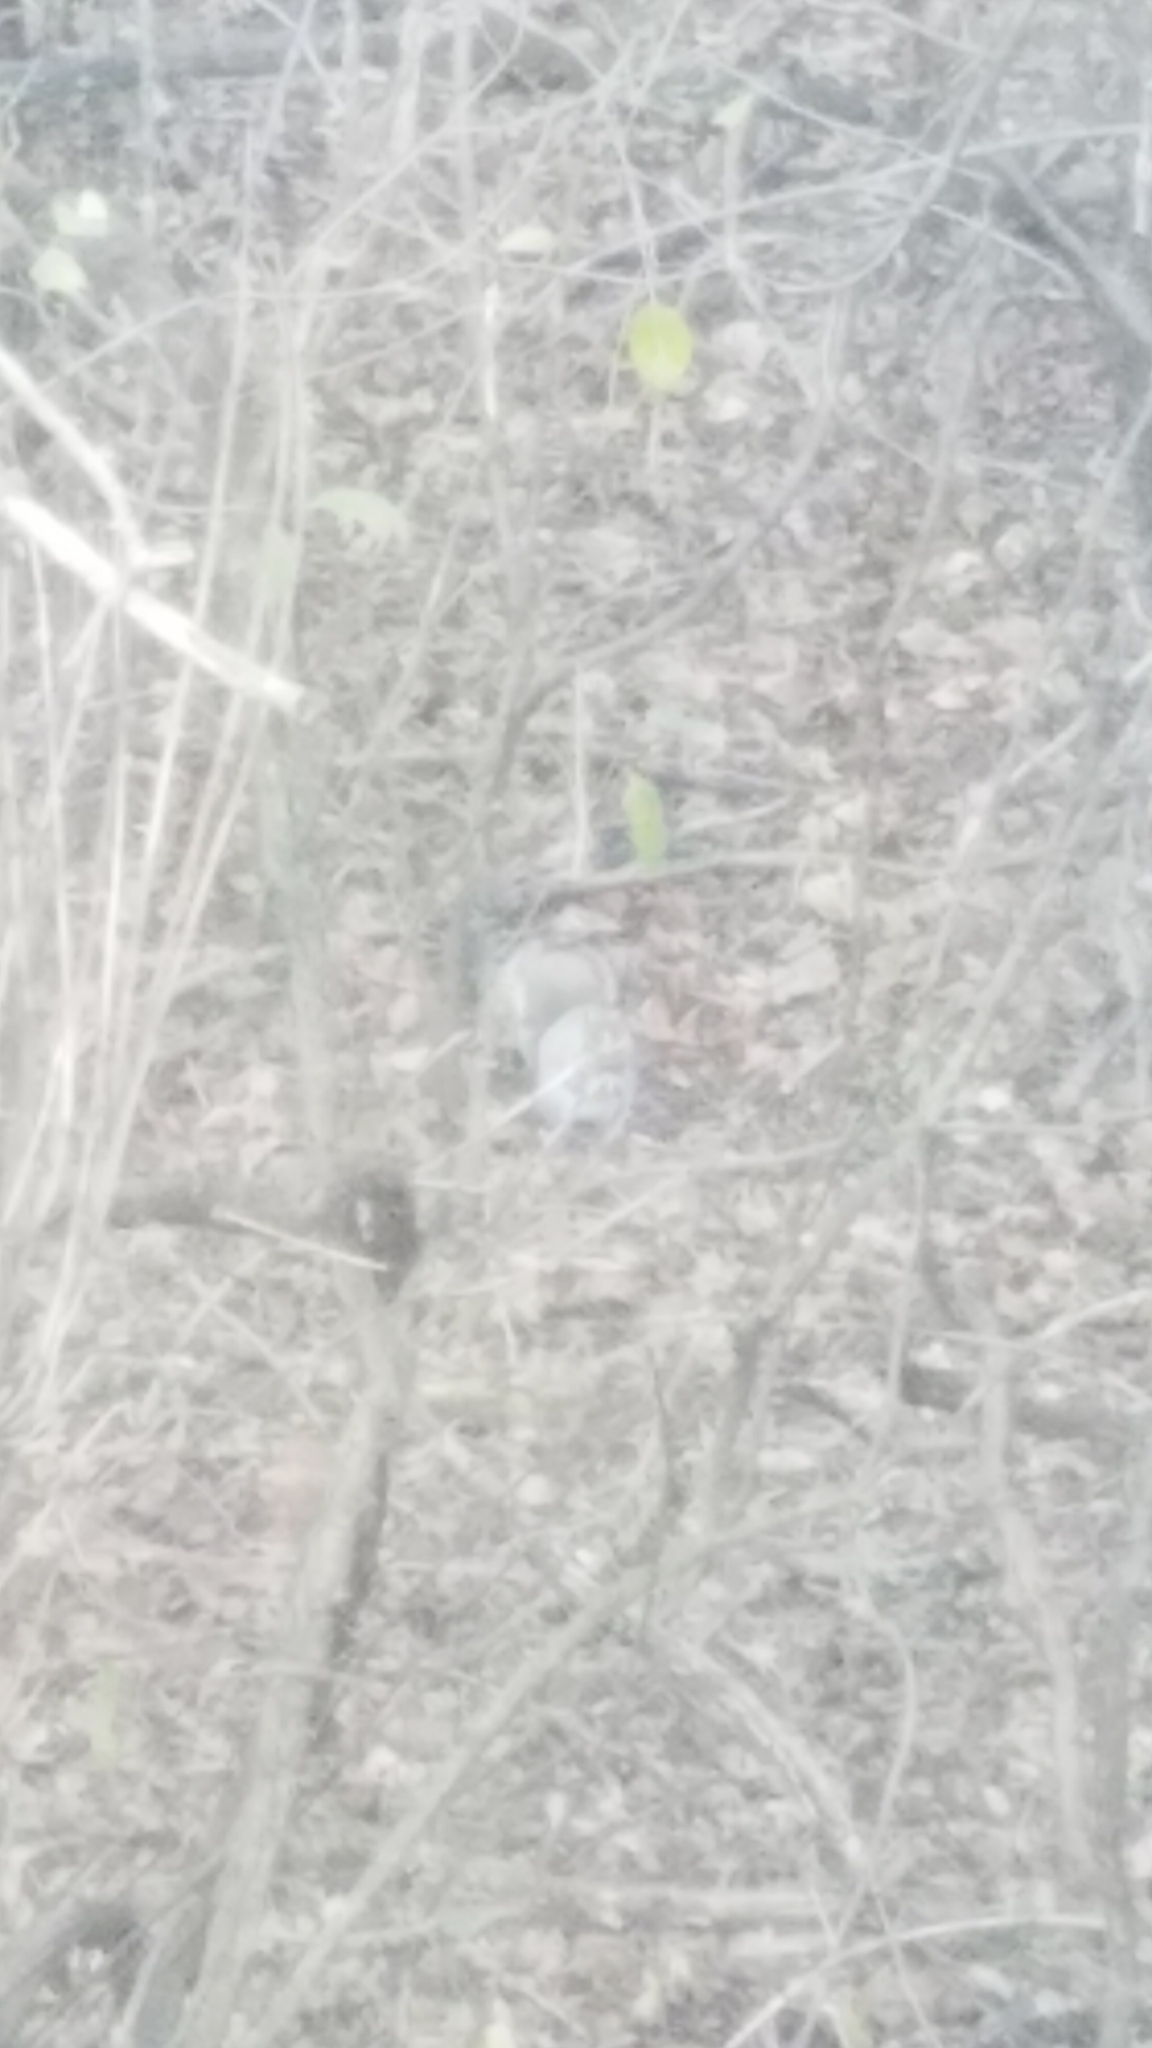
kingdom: Animalia
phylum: Chordata
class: Mammalia
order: Rodentia
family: Sciuridae
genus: Sciurus
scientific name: Sciurus carolinensis
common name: Eastern gray squirrel
